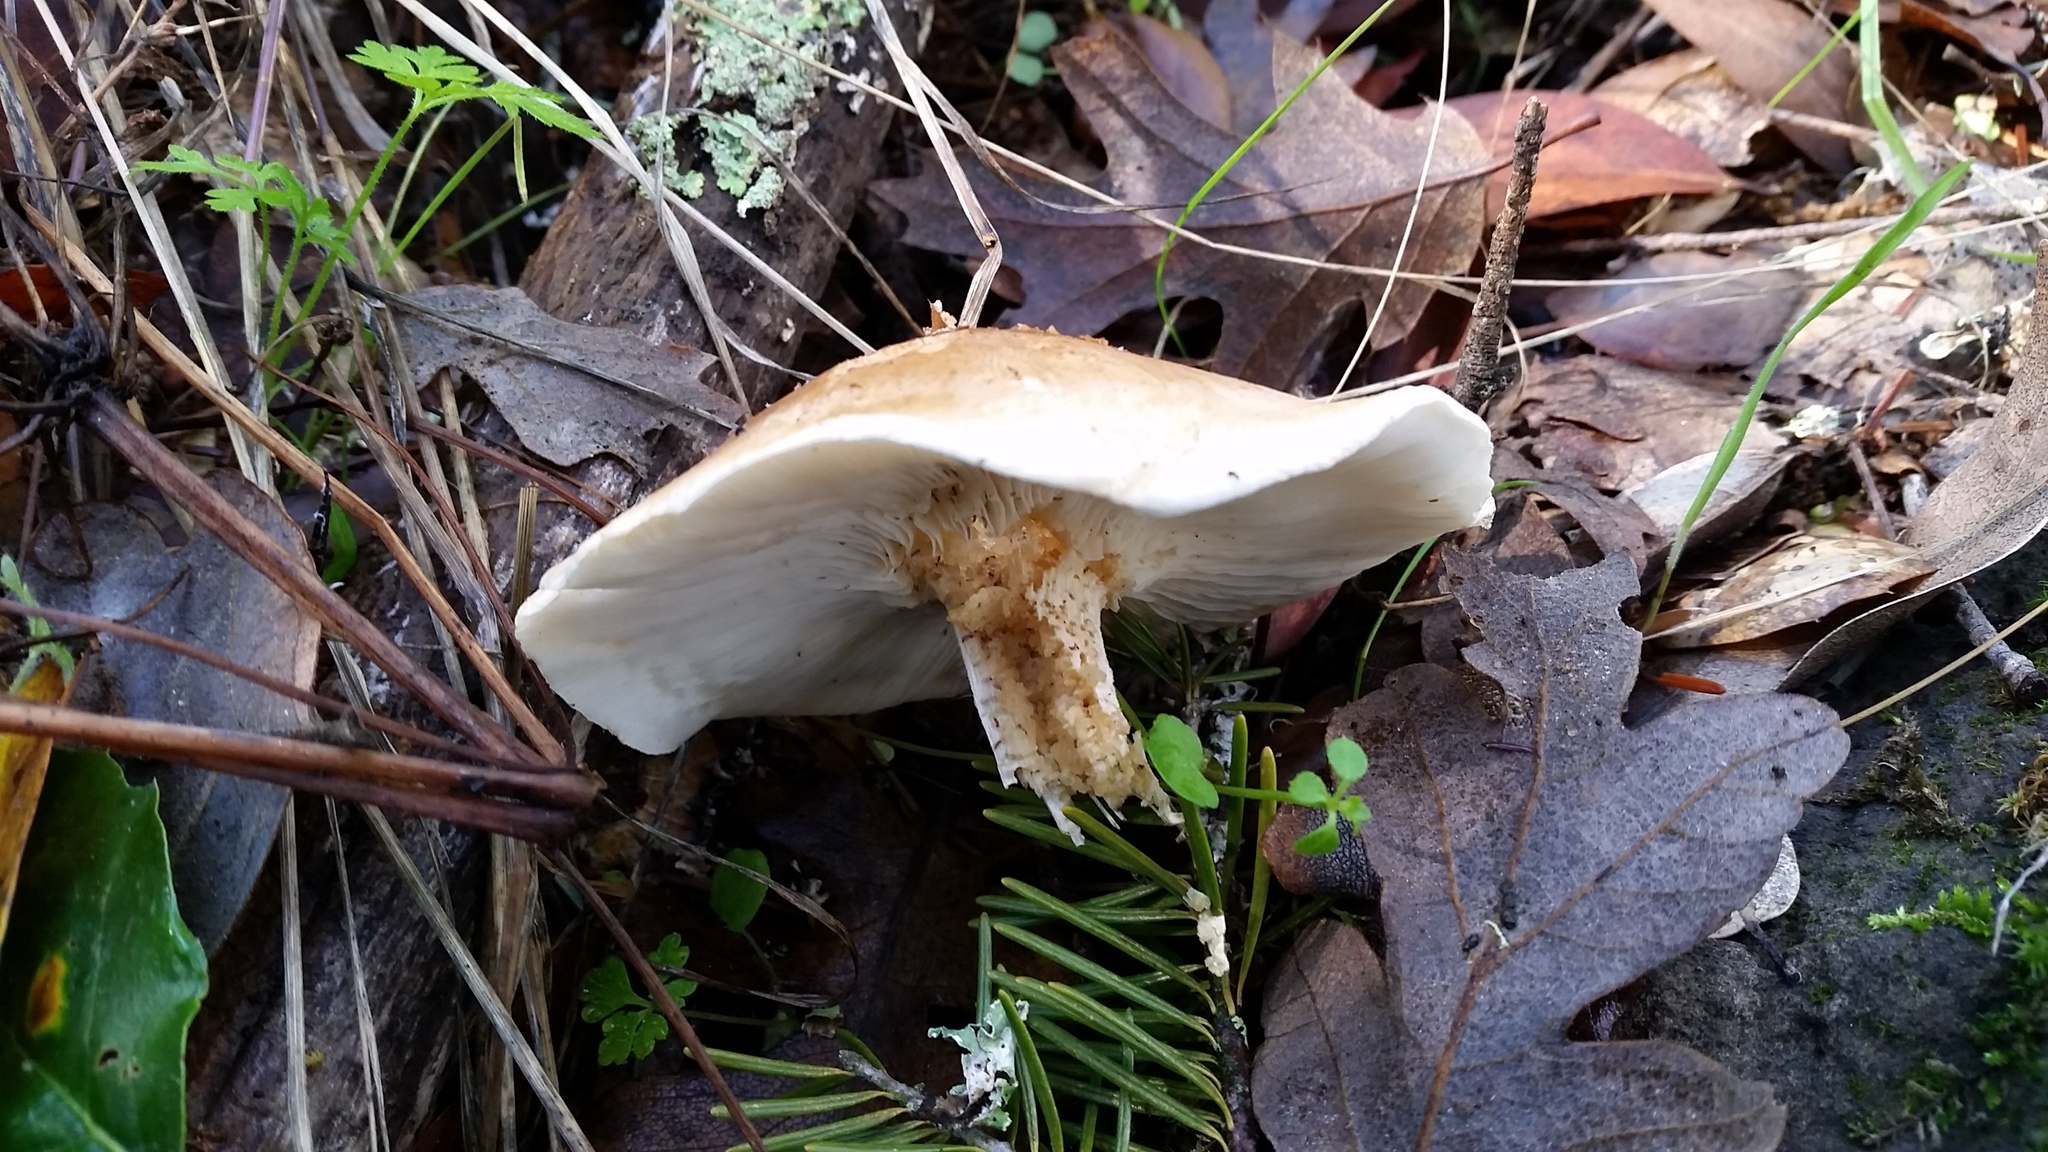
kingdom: Fungi
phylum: Basidiomycota
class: Agaricomycetes
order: Agaricales
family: Tricholomataceae
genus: Leucopaxillus
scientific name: Leucopaxillus gentianeus
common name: Bitter funnel
